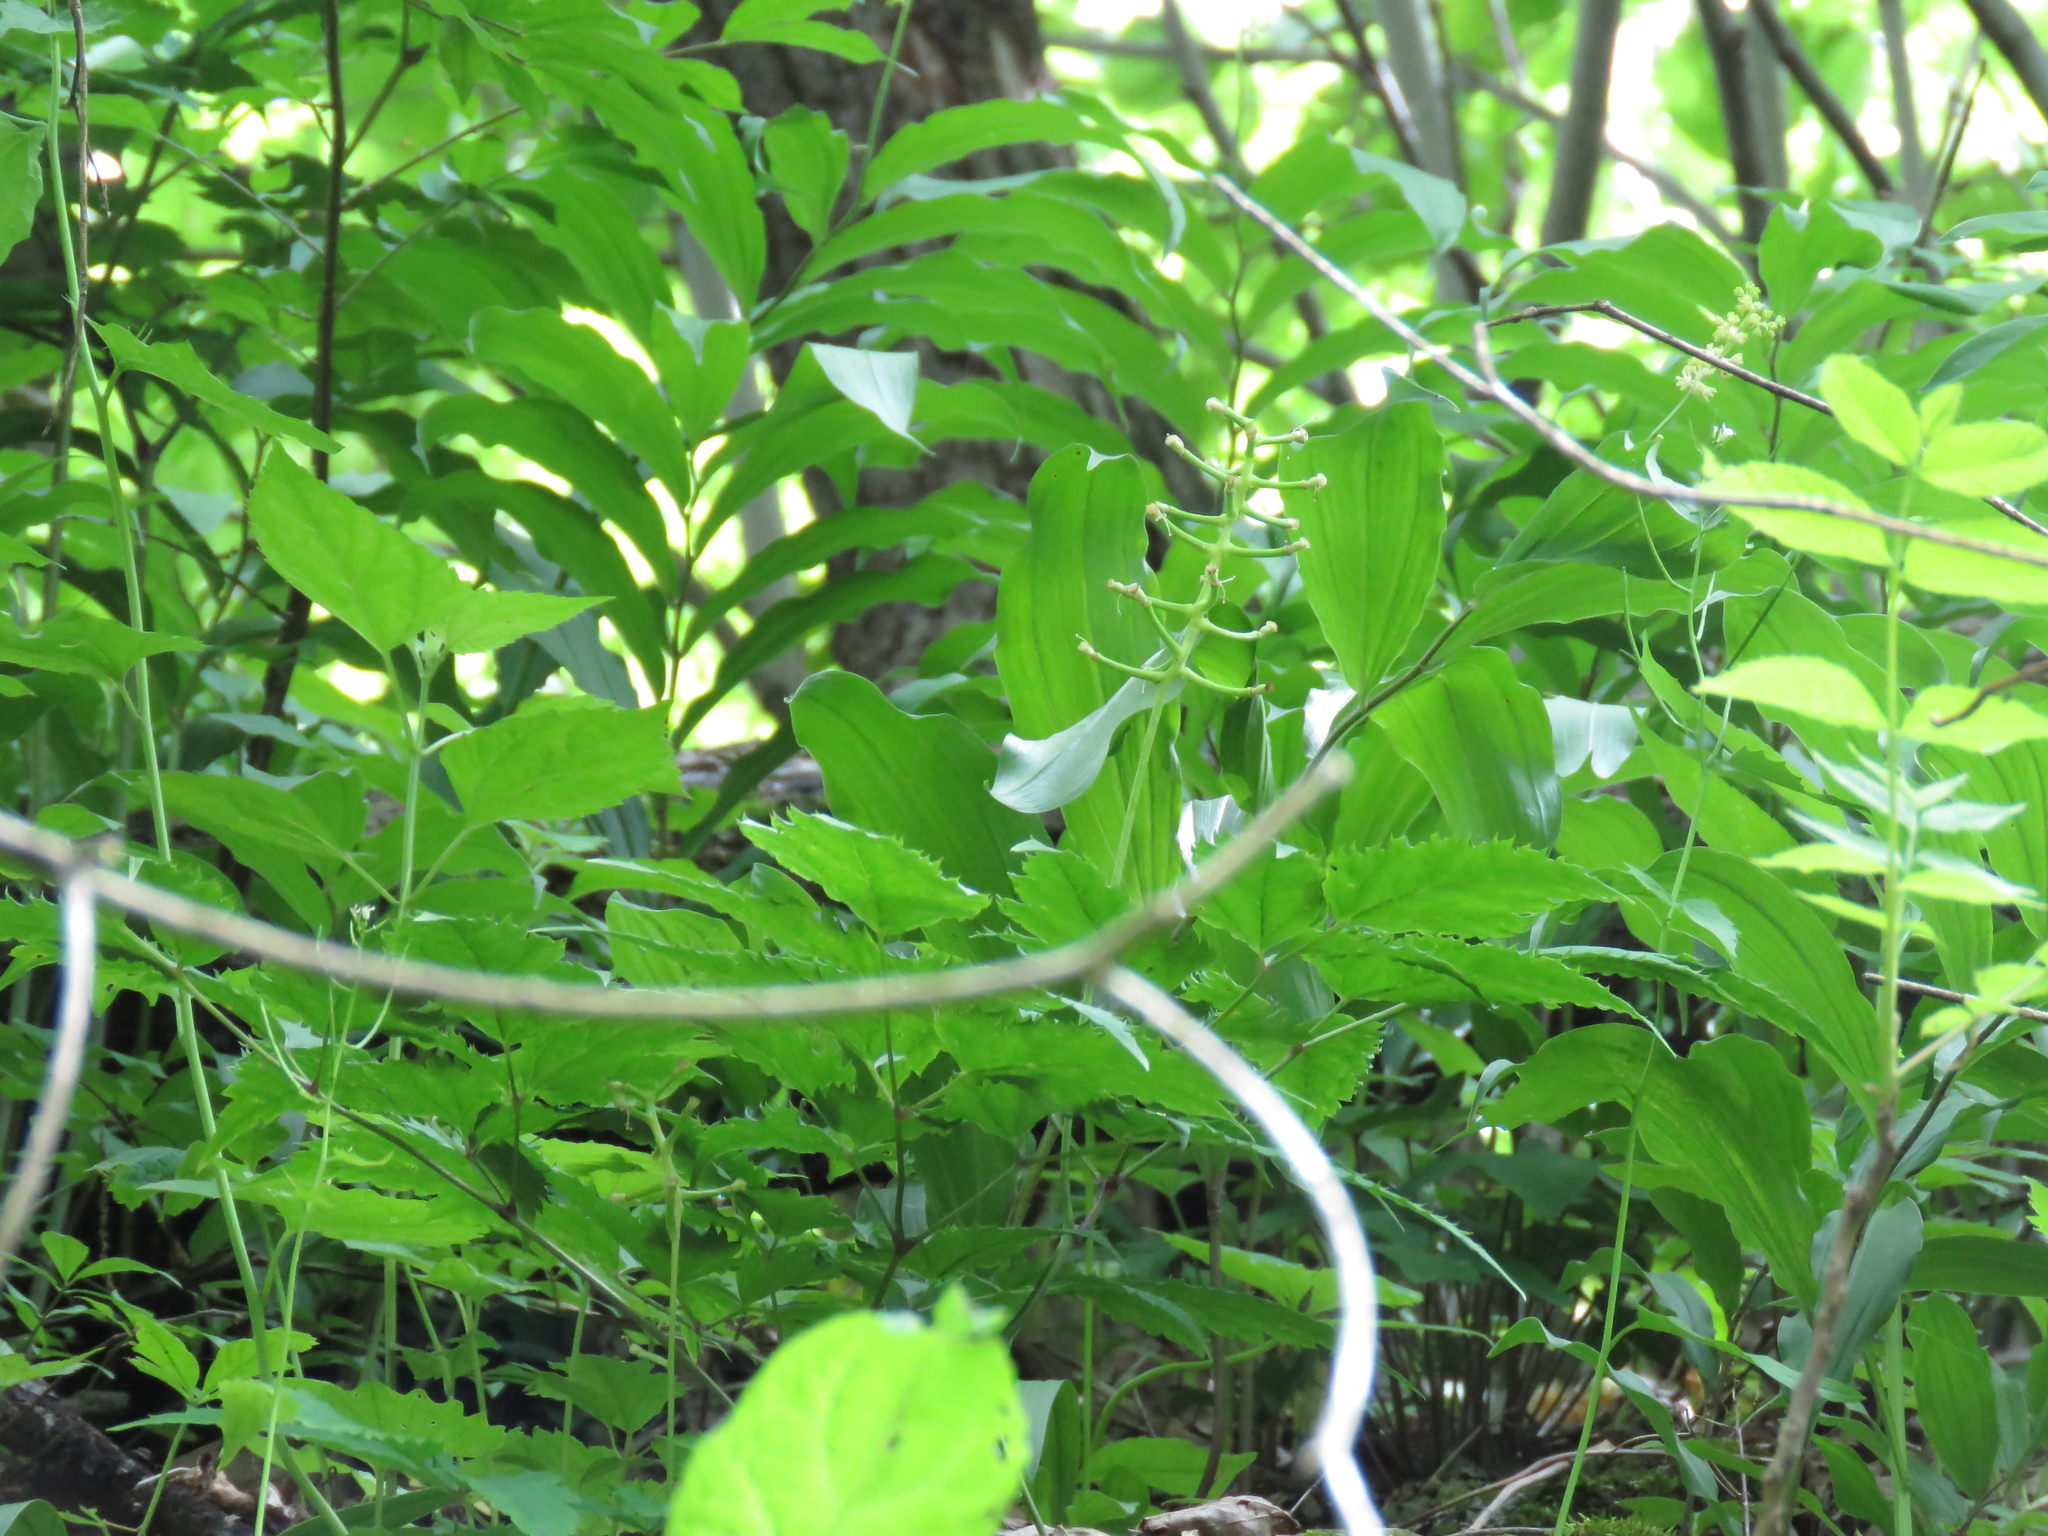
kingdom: Plantae
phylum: Tracheophyta
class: Magnoliopsida
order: Ranunculales
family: Ranunculaceae
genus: Actaea
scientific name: Actaea pachypoda
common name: Doll's-eyes
